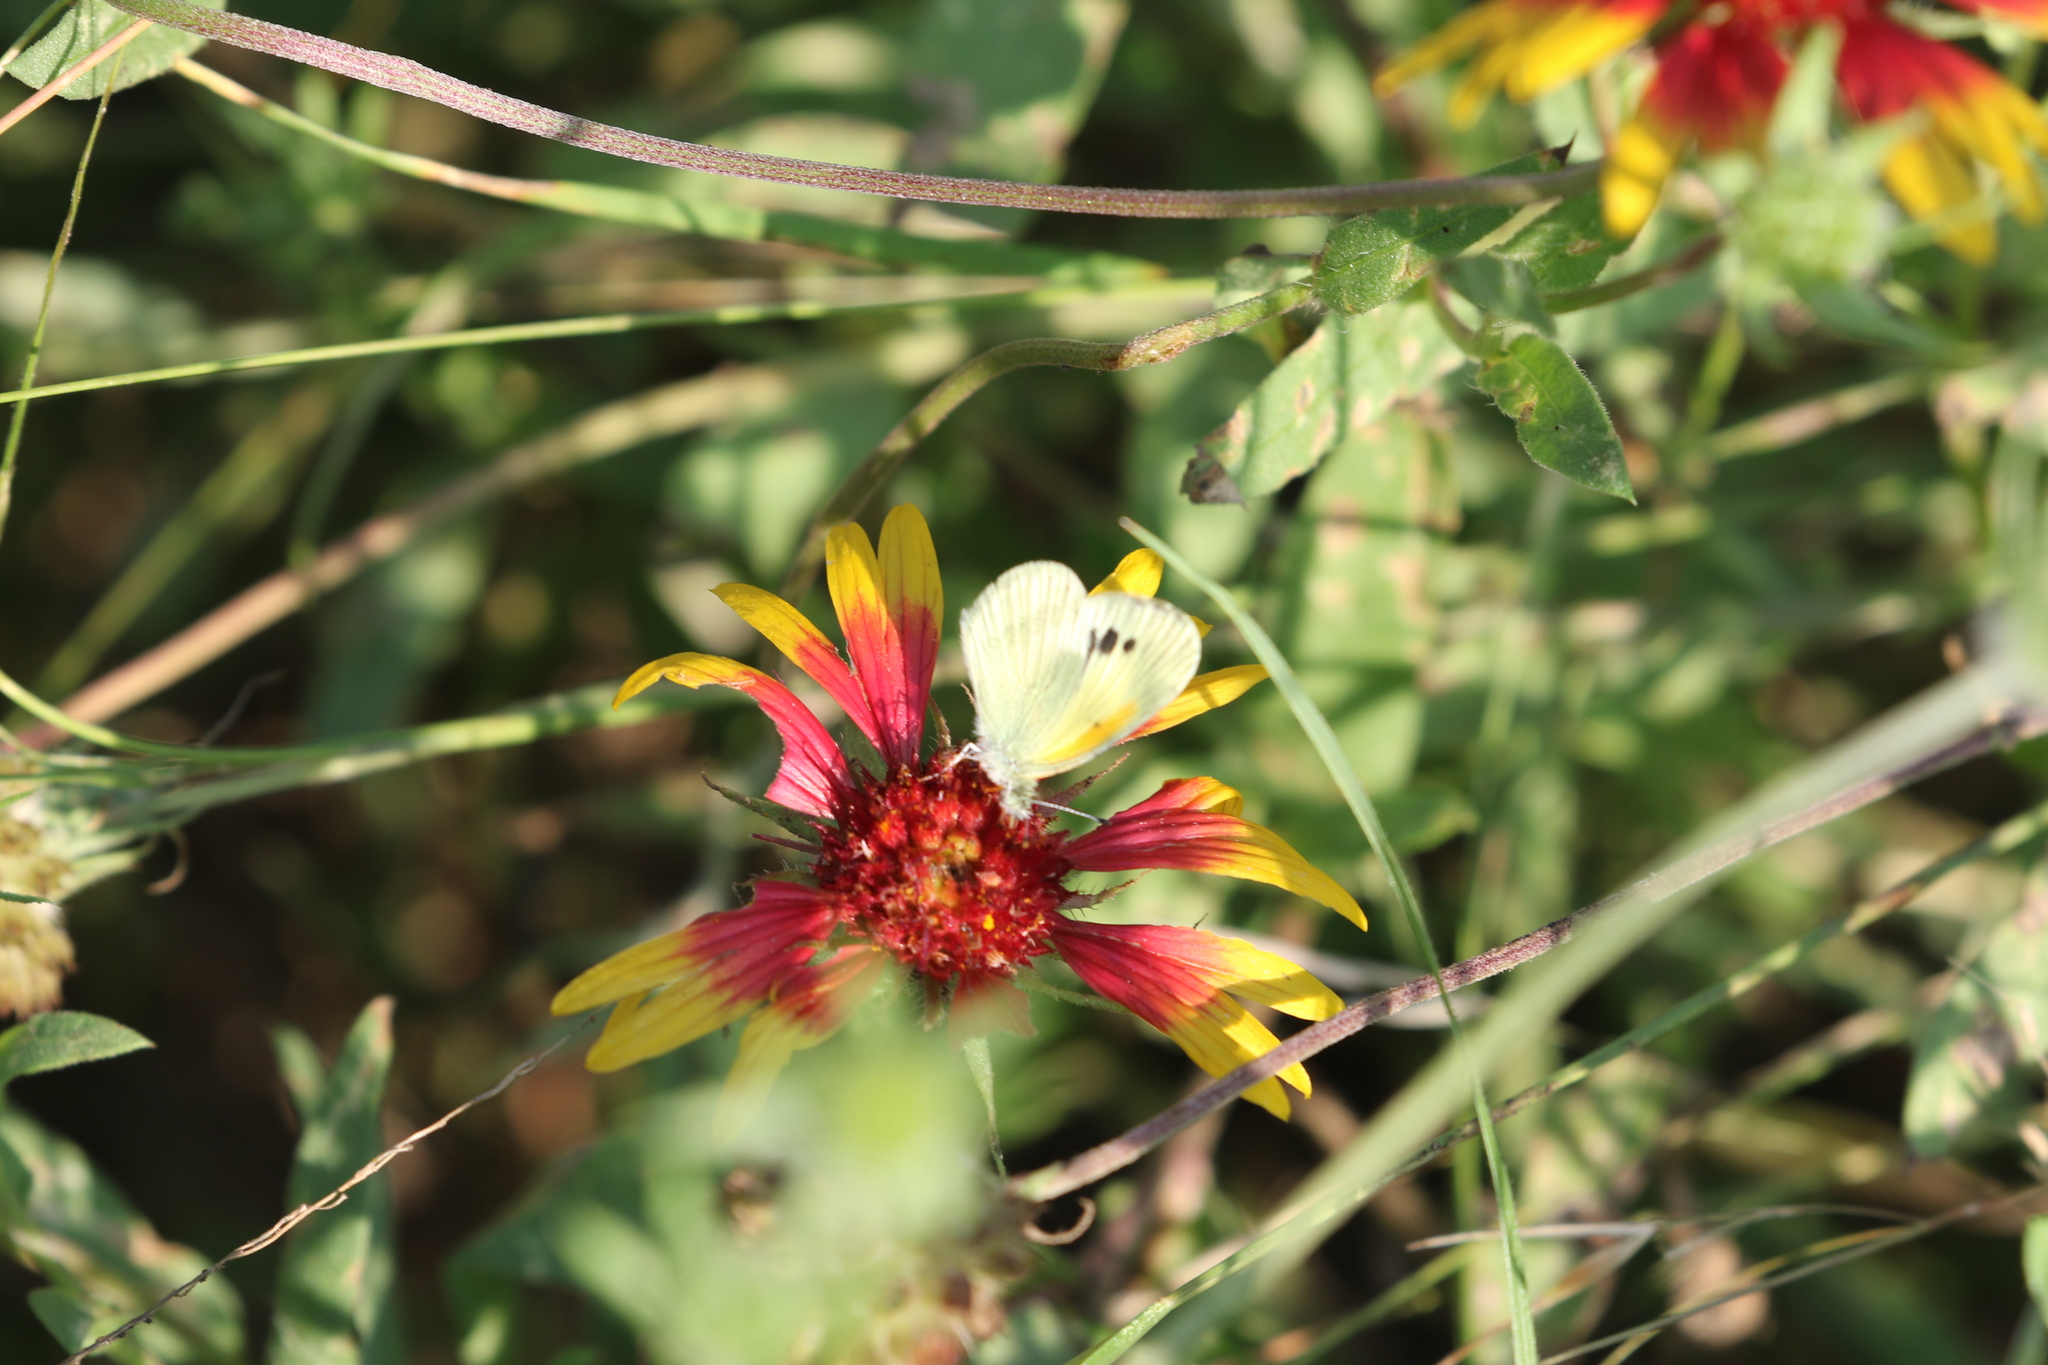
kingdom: Animalia
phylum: Arthropoda
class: Insecta
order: Lepidoptera
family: Pieridae
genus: Nathalis
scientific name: Nathalis iole
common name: Dainty sulphur
